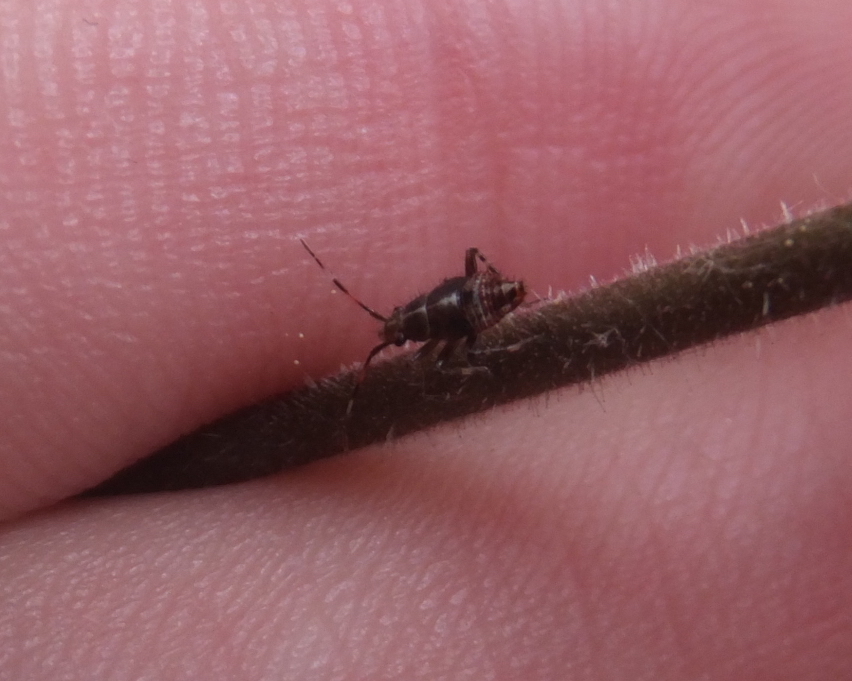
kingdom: Animalia
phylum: Arthropoda
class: Insecta
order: Hemiptera
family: Miridae
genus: Deraeocoris
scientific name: Deraeocoris flavilinea
